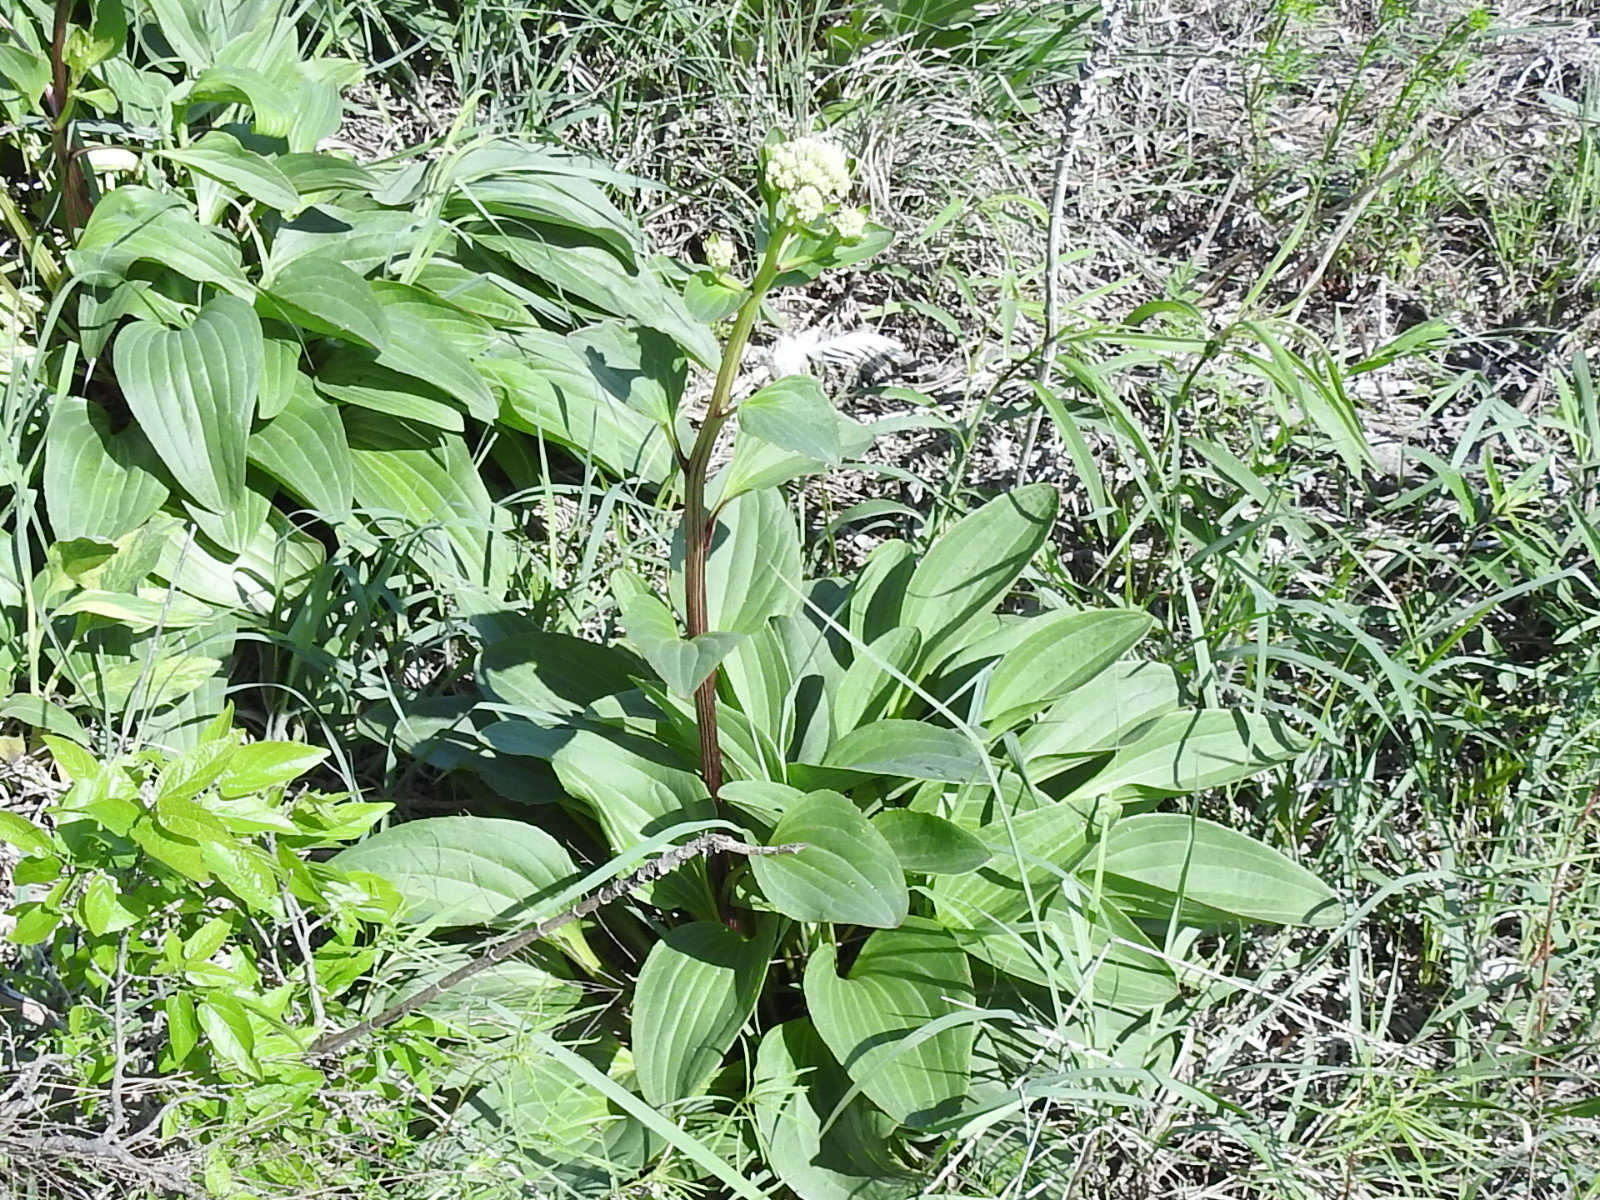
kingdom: Plantae
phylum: Tracheophyta
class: Magnoliopsida
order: Asterales
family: Asteraceae
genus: Arnoglossum
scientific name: Arnoglossum plantagineum
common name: Groove-stemmed indian-plantain
